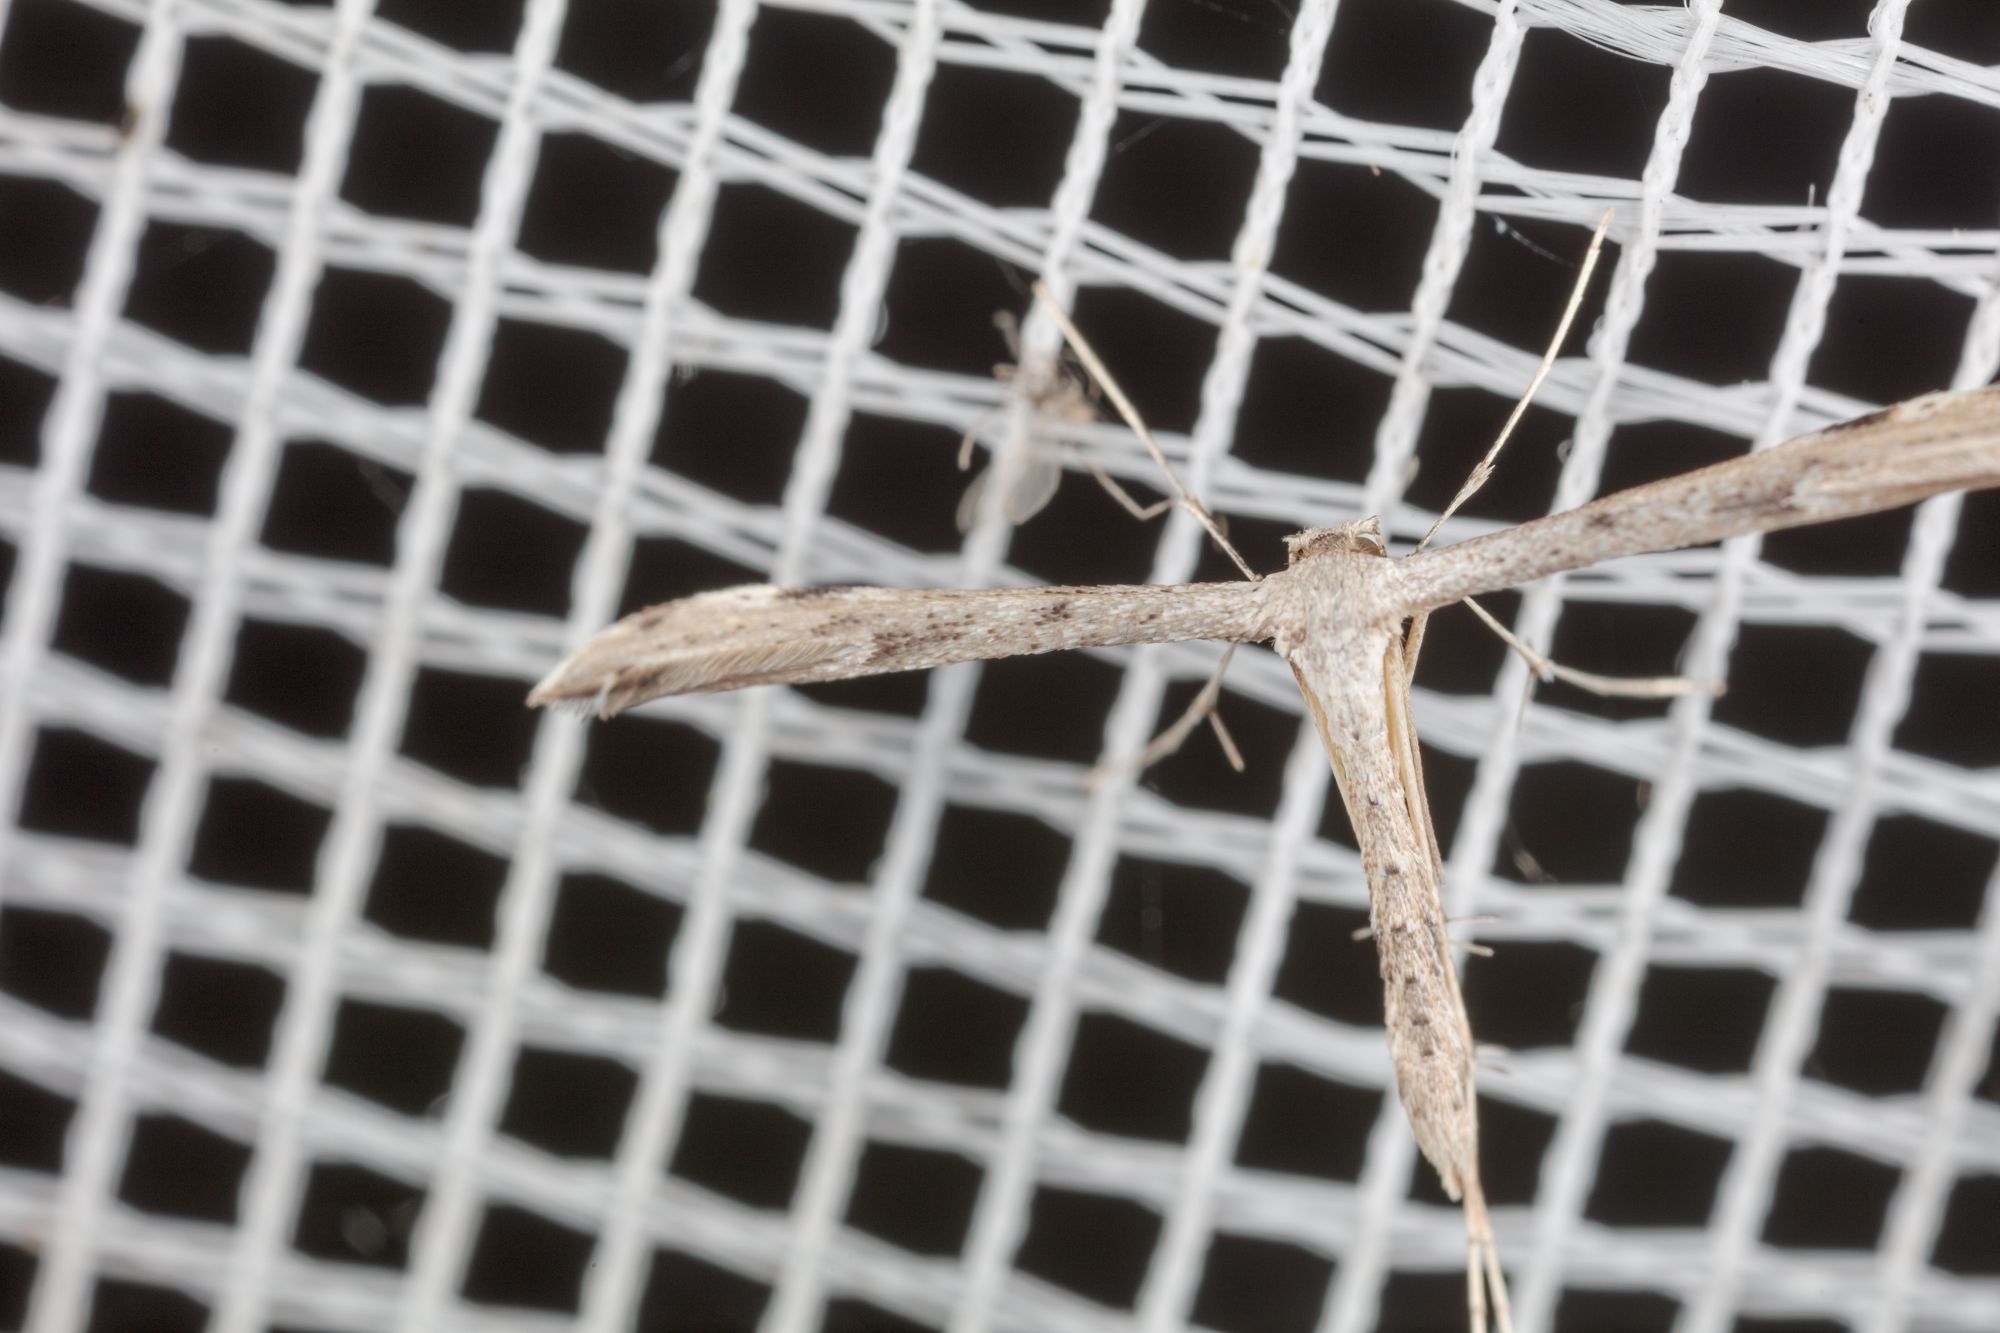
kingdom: Animalia
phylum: Arthropoda
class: Insecta
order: Lepidoptera
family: Pterophoridae
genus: Adaina
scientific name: Adaina ambrosiae
